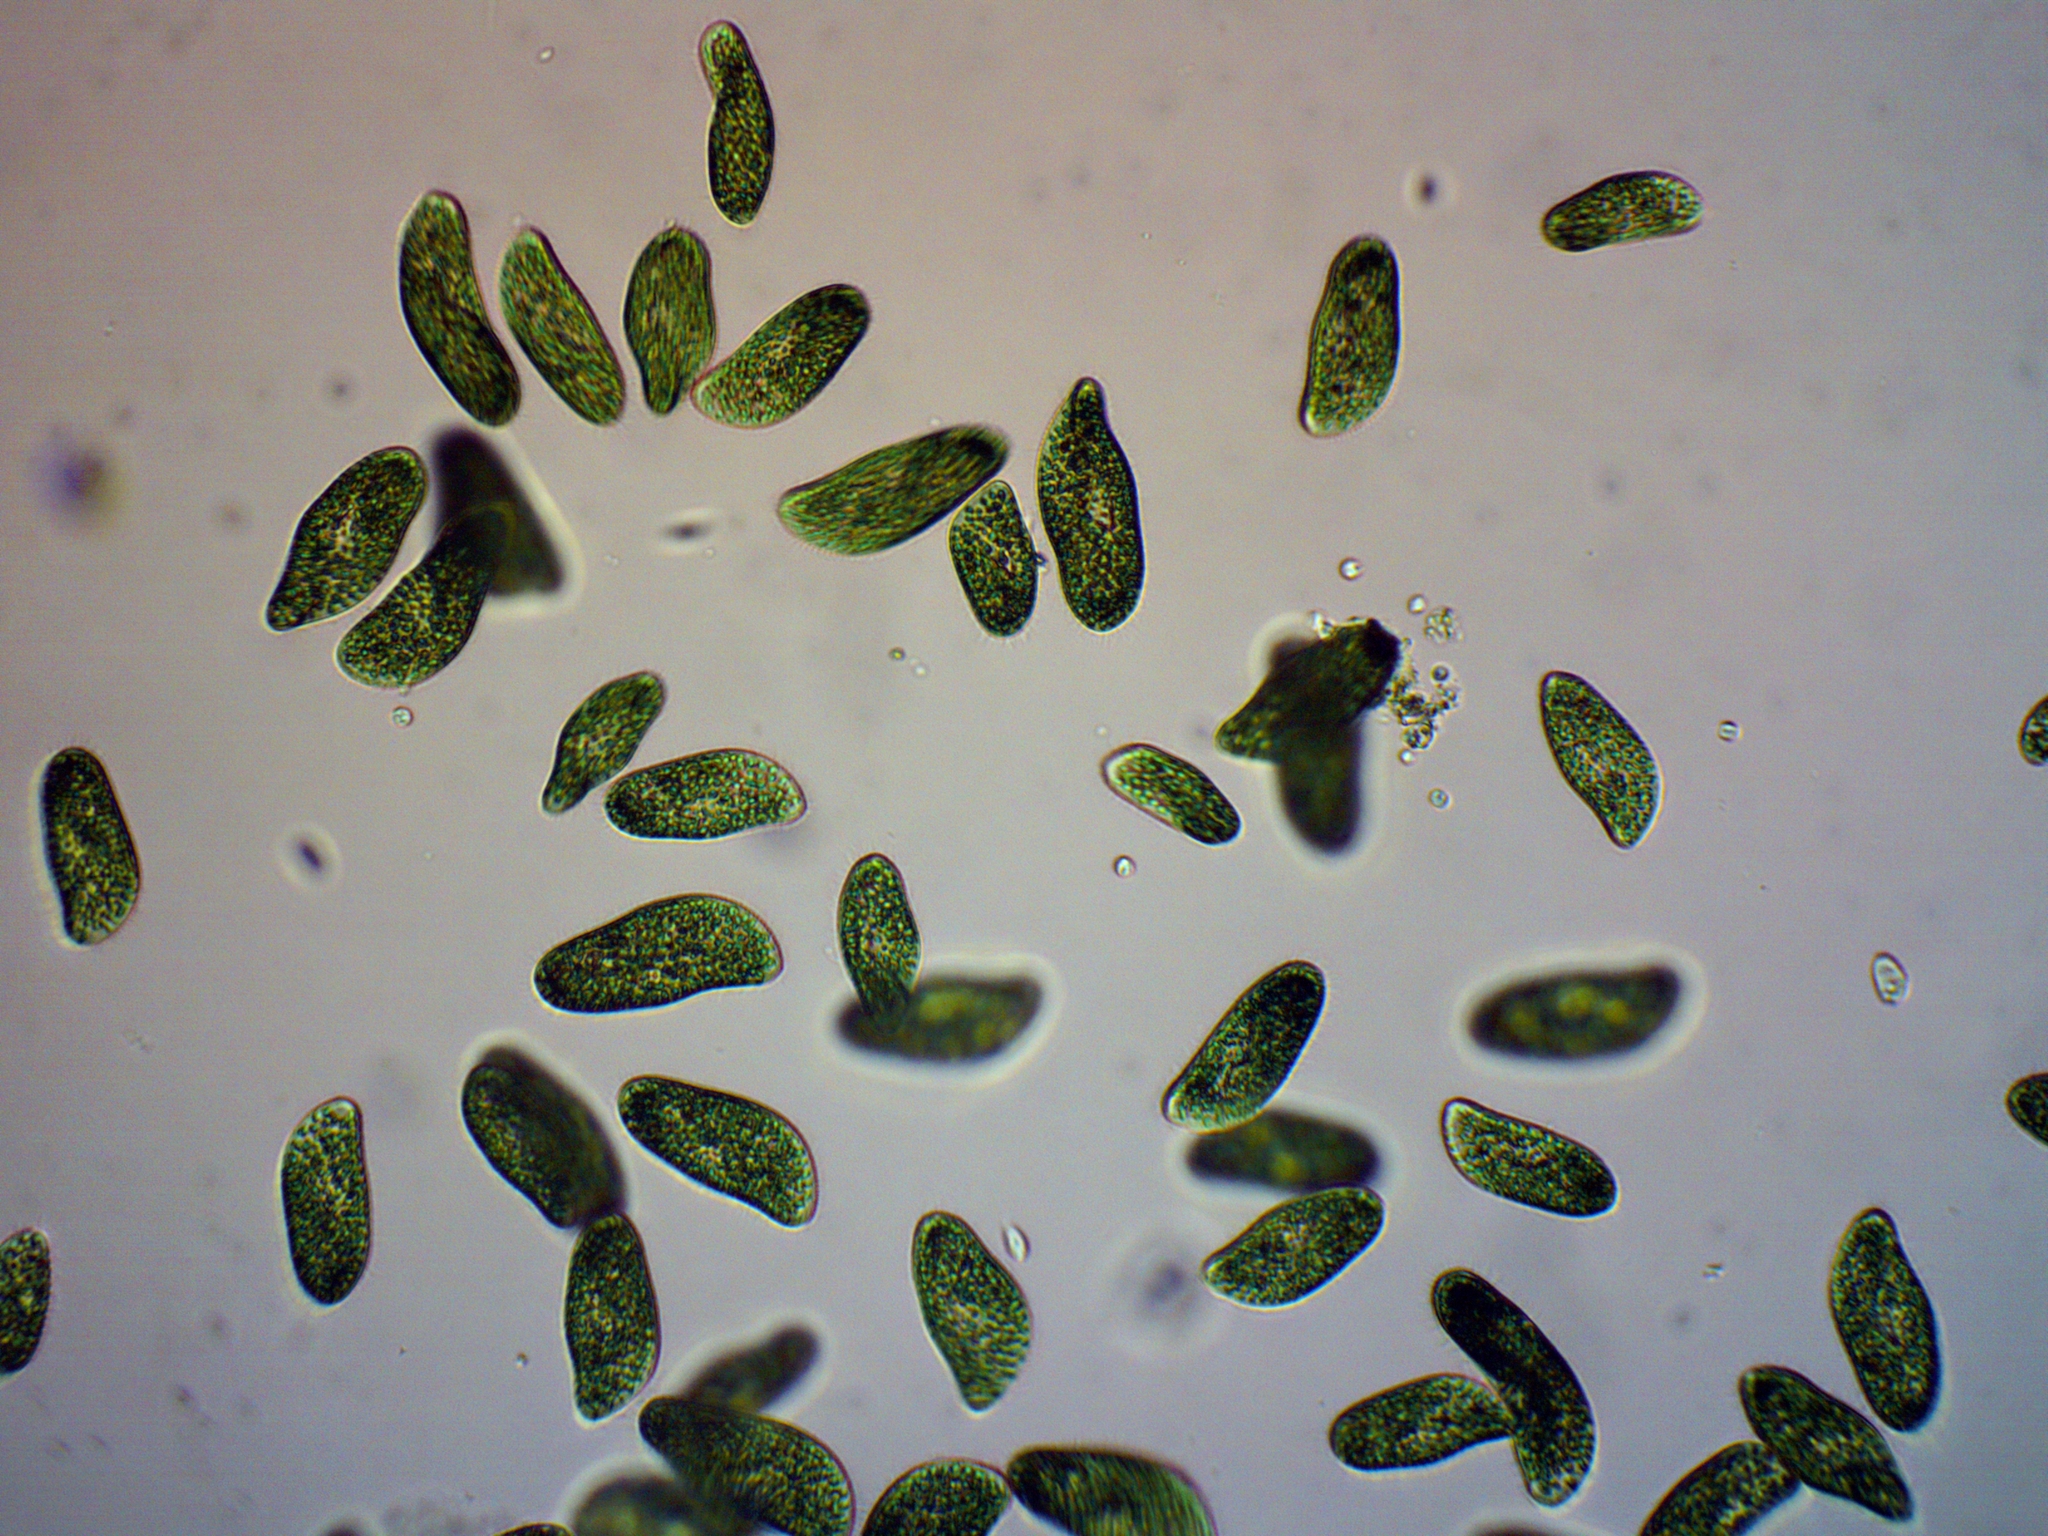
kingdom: Chromista
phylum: Ciliophora
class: Oligohymenophorea
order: Peniculida
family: Parameciidae
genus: Paramecium
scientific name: Paramecium
